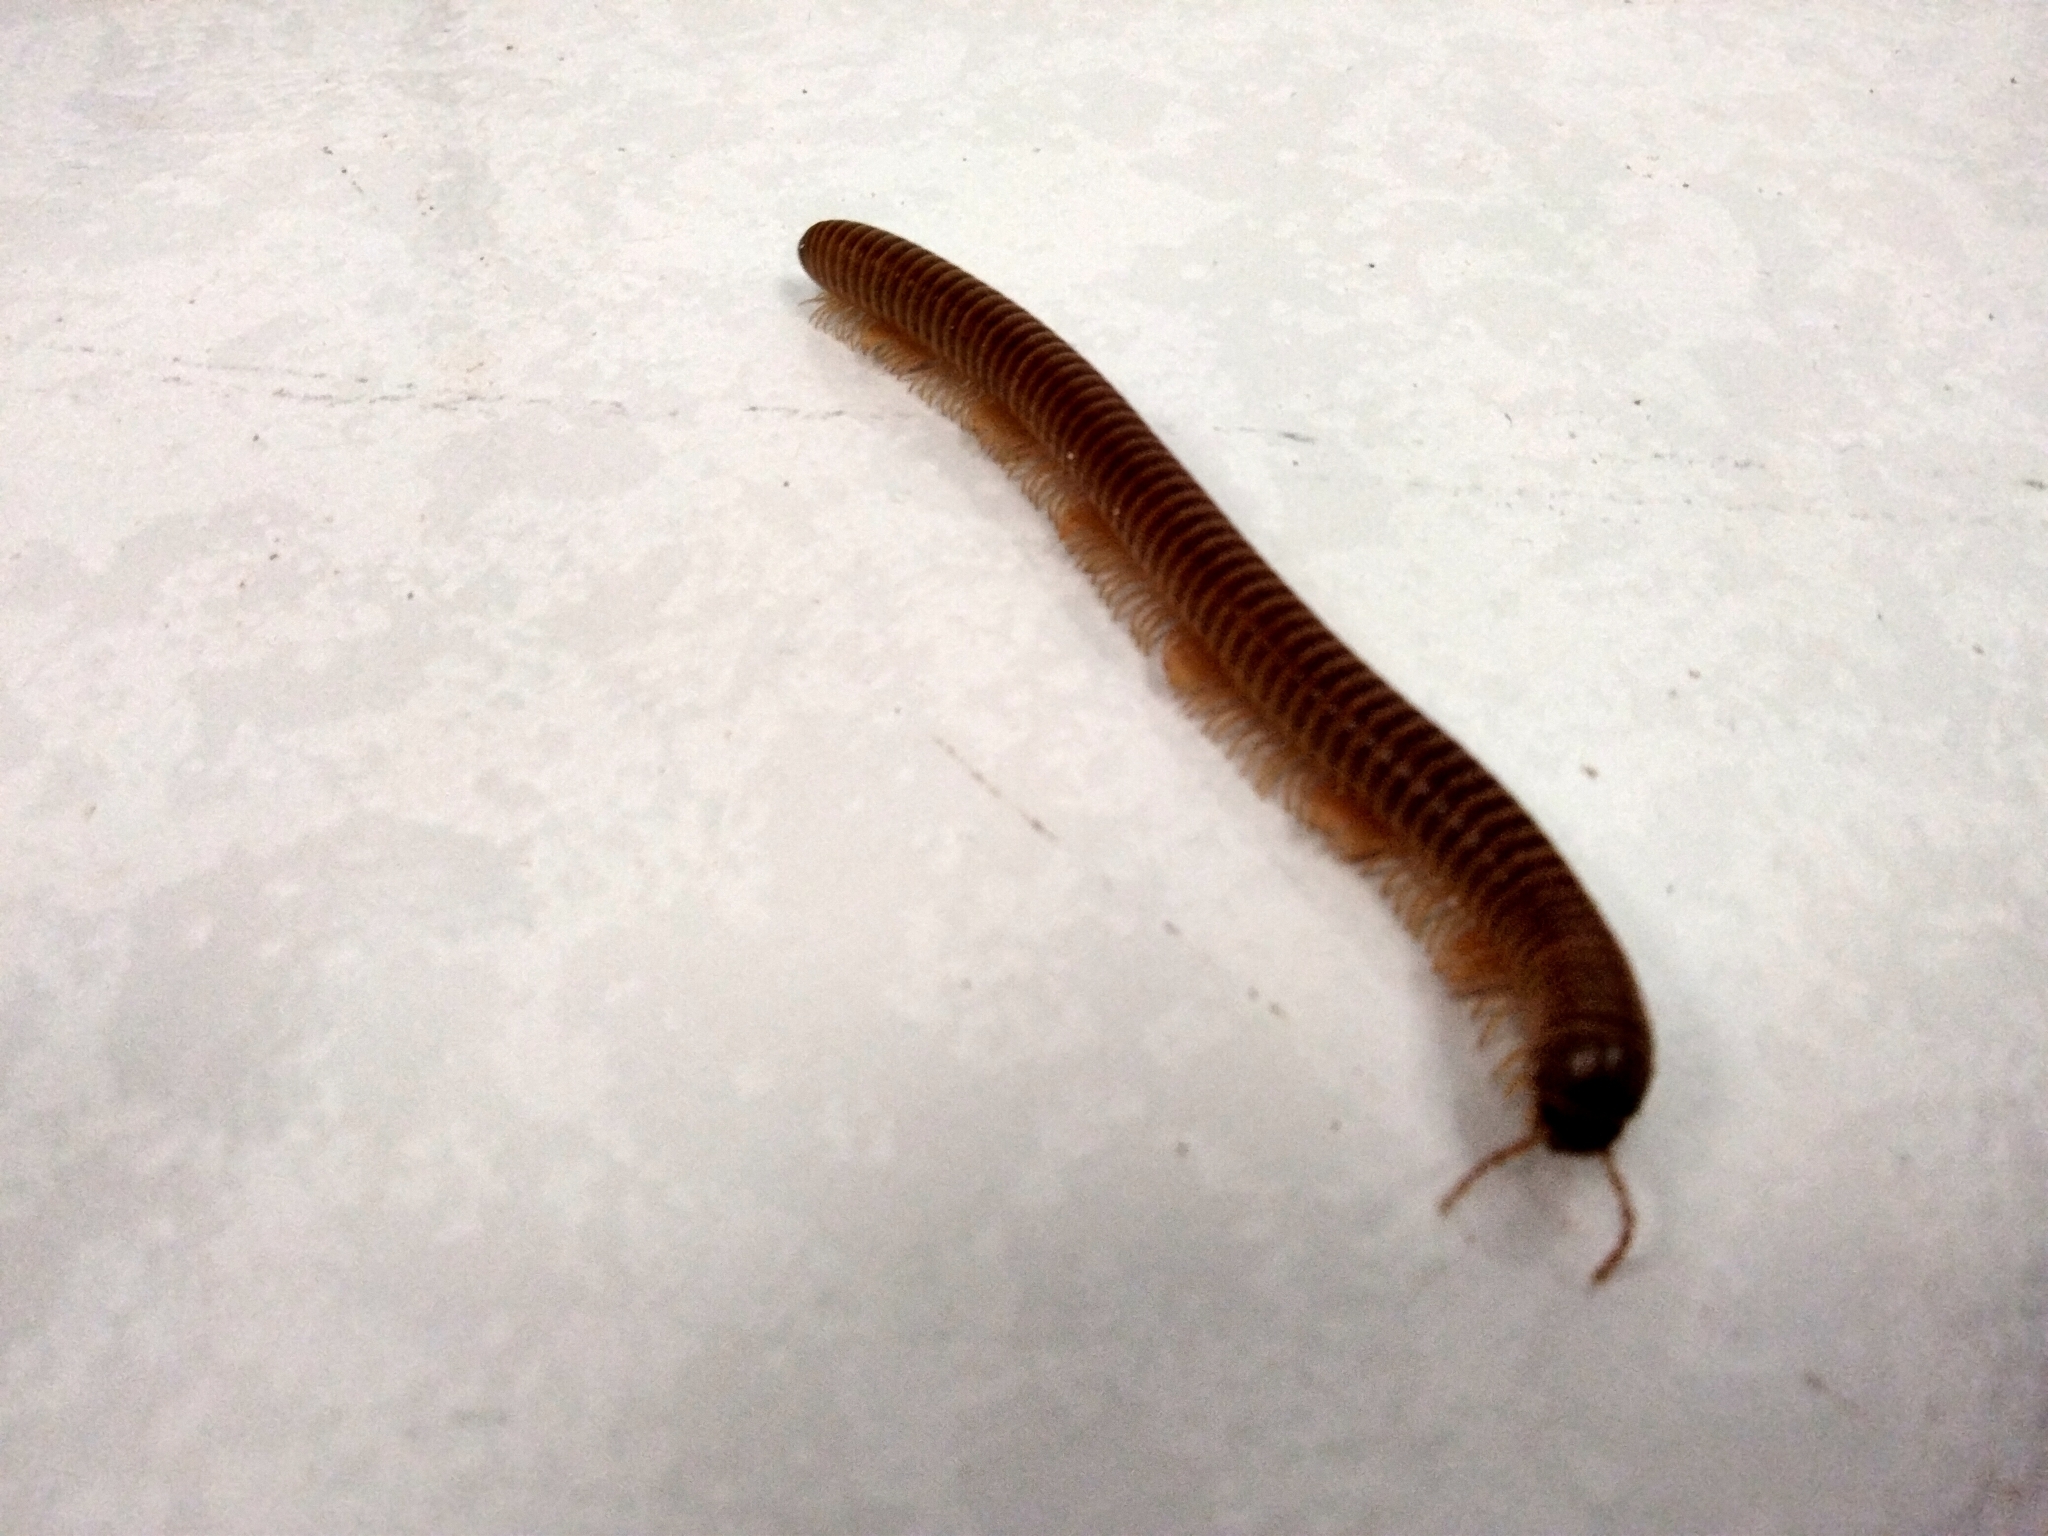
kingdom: Animalia
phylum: Arthropoda
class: Diplopoda
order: Julida
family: Julidae
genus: Cylindroiulus
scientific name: Cylindroiulus punctatus
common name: Blunt-tailed millipede
